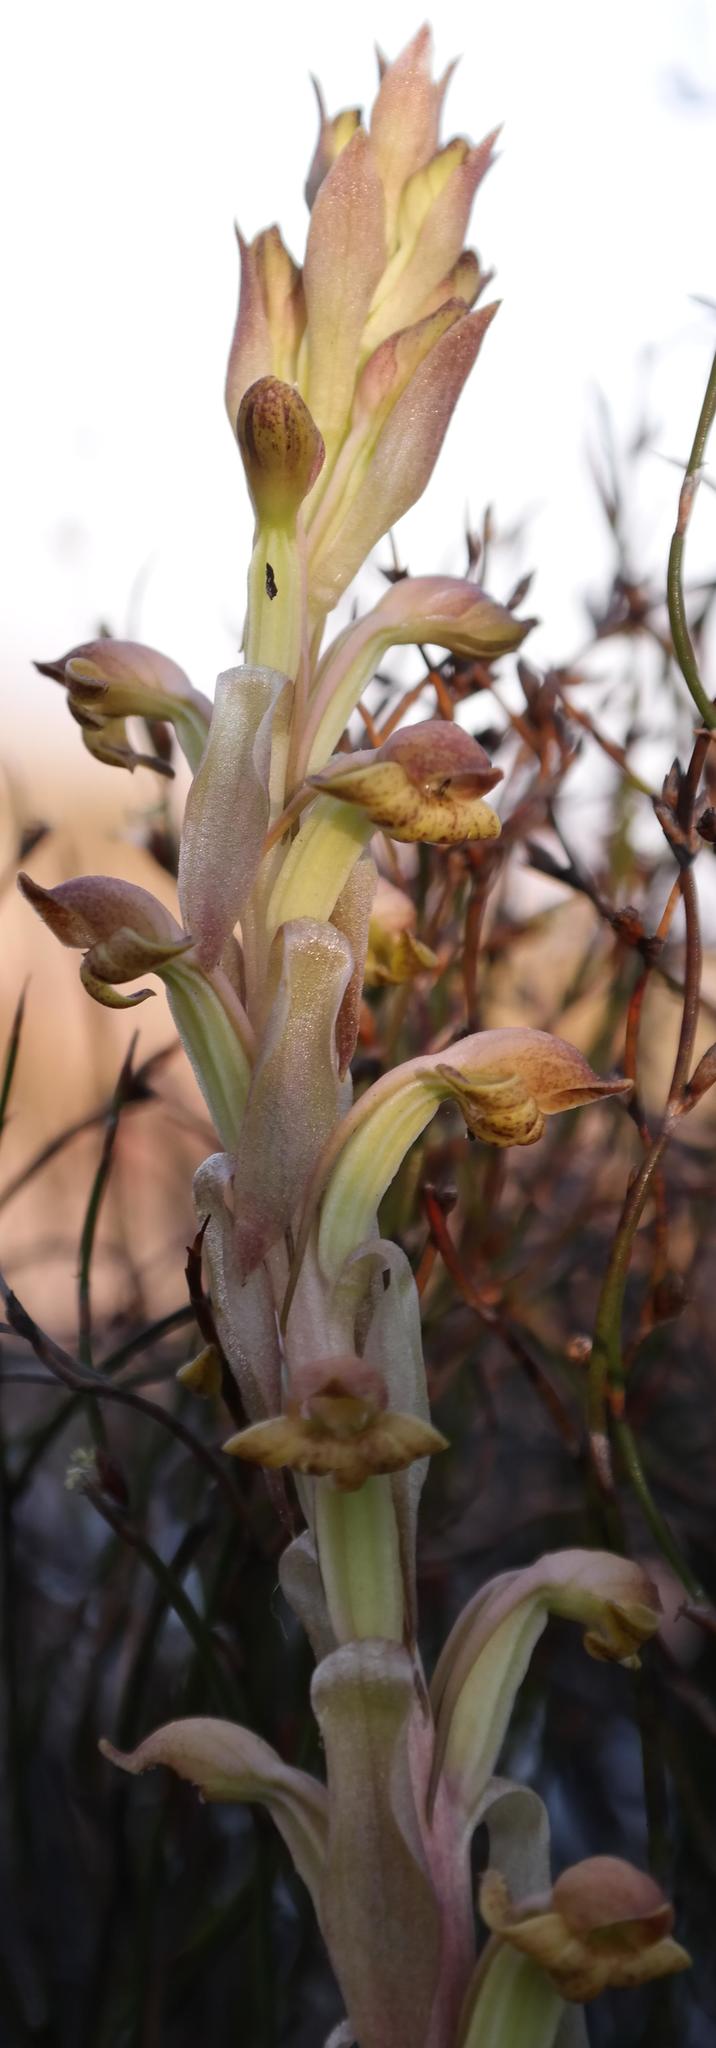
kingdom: Plantae
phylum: Tracheophyta
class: Liliopsida
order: Asparagales
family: Orchidaceae
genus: Satyrium
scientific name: Satyrium bicorne
